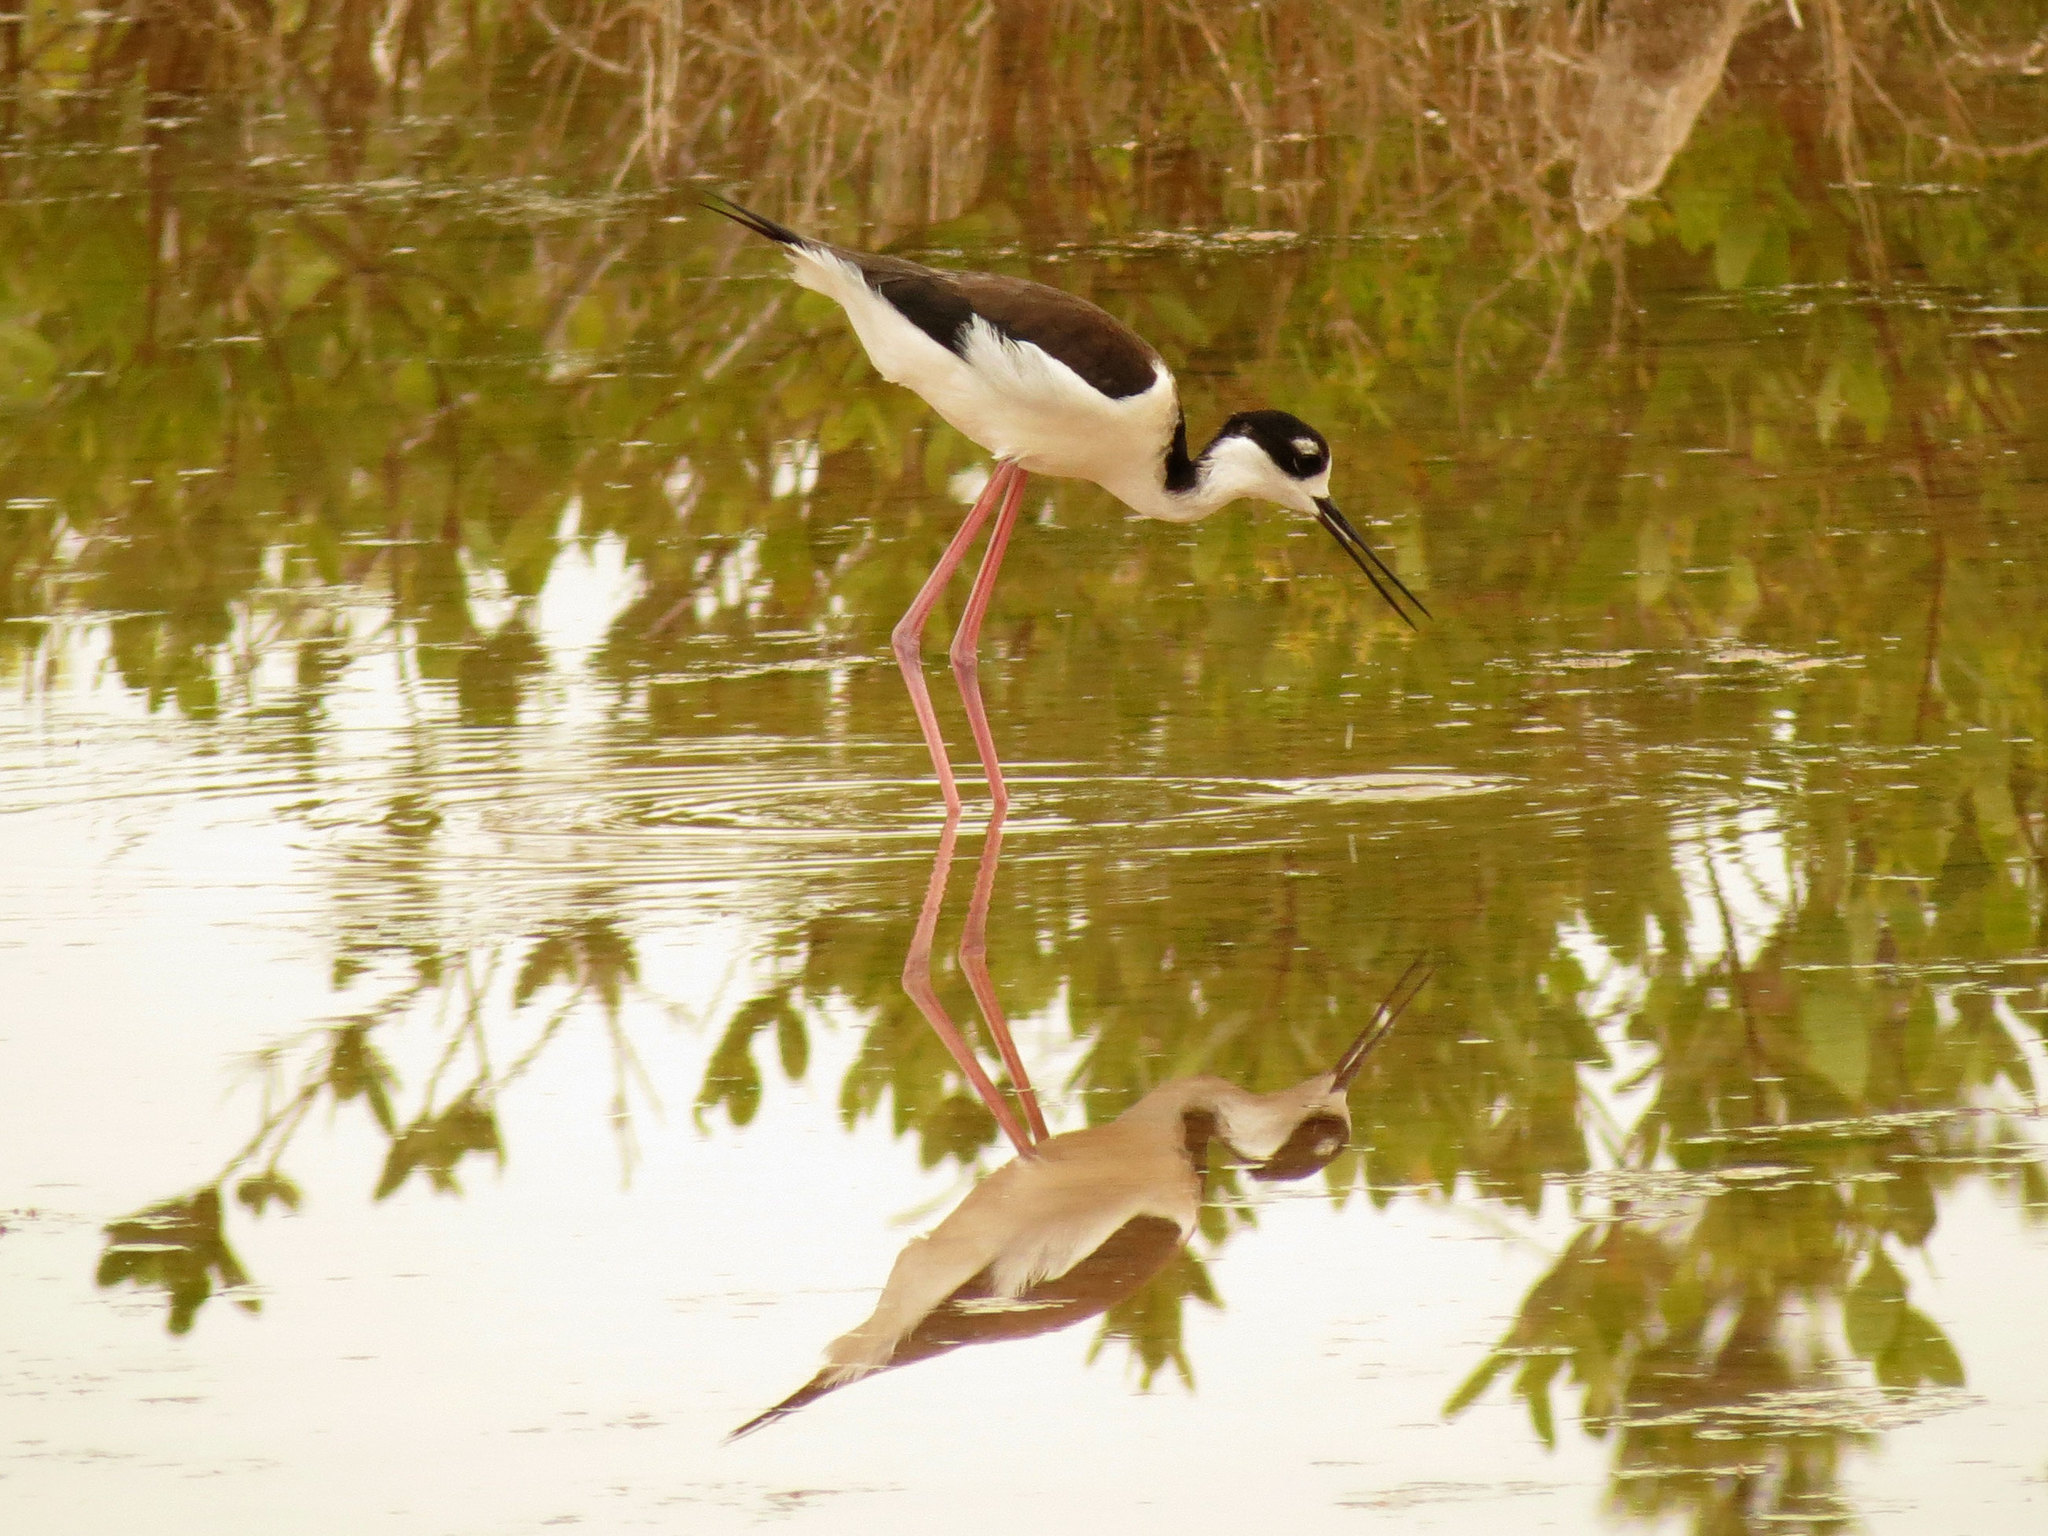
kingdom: Animalia
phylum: Chordata
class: Aves
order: Charadriiformes
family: Recurvirostridae
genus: Himantopus
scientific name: Himantopus mexicanus
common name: Black-necked stilt
